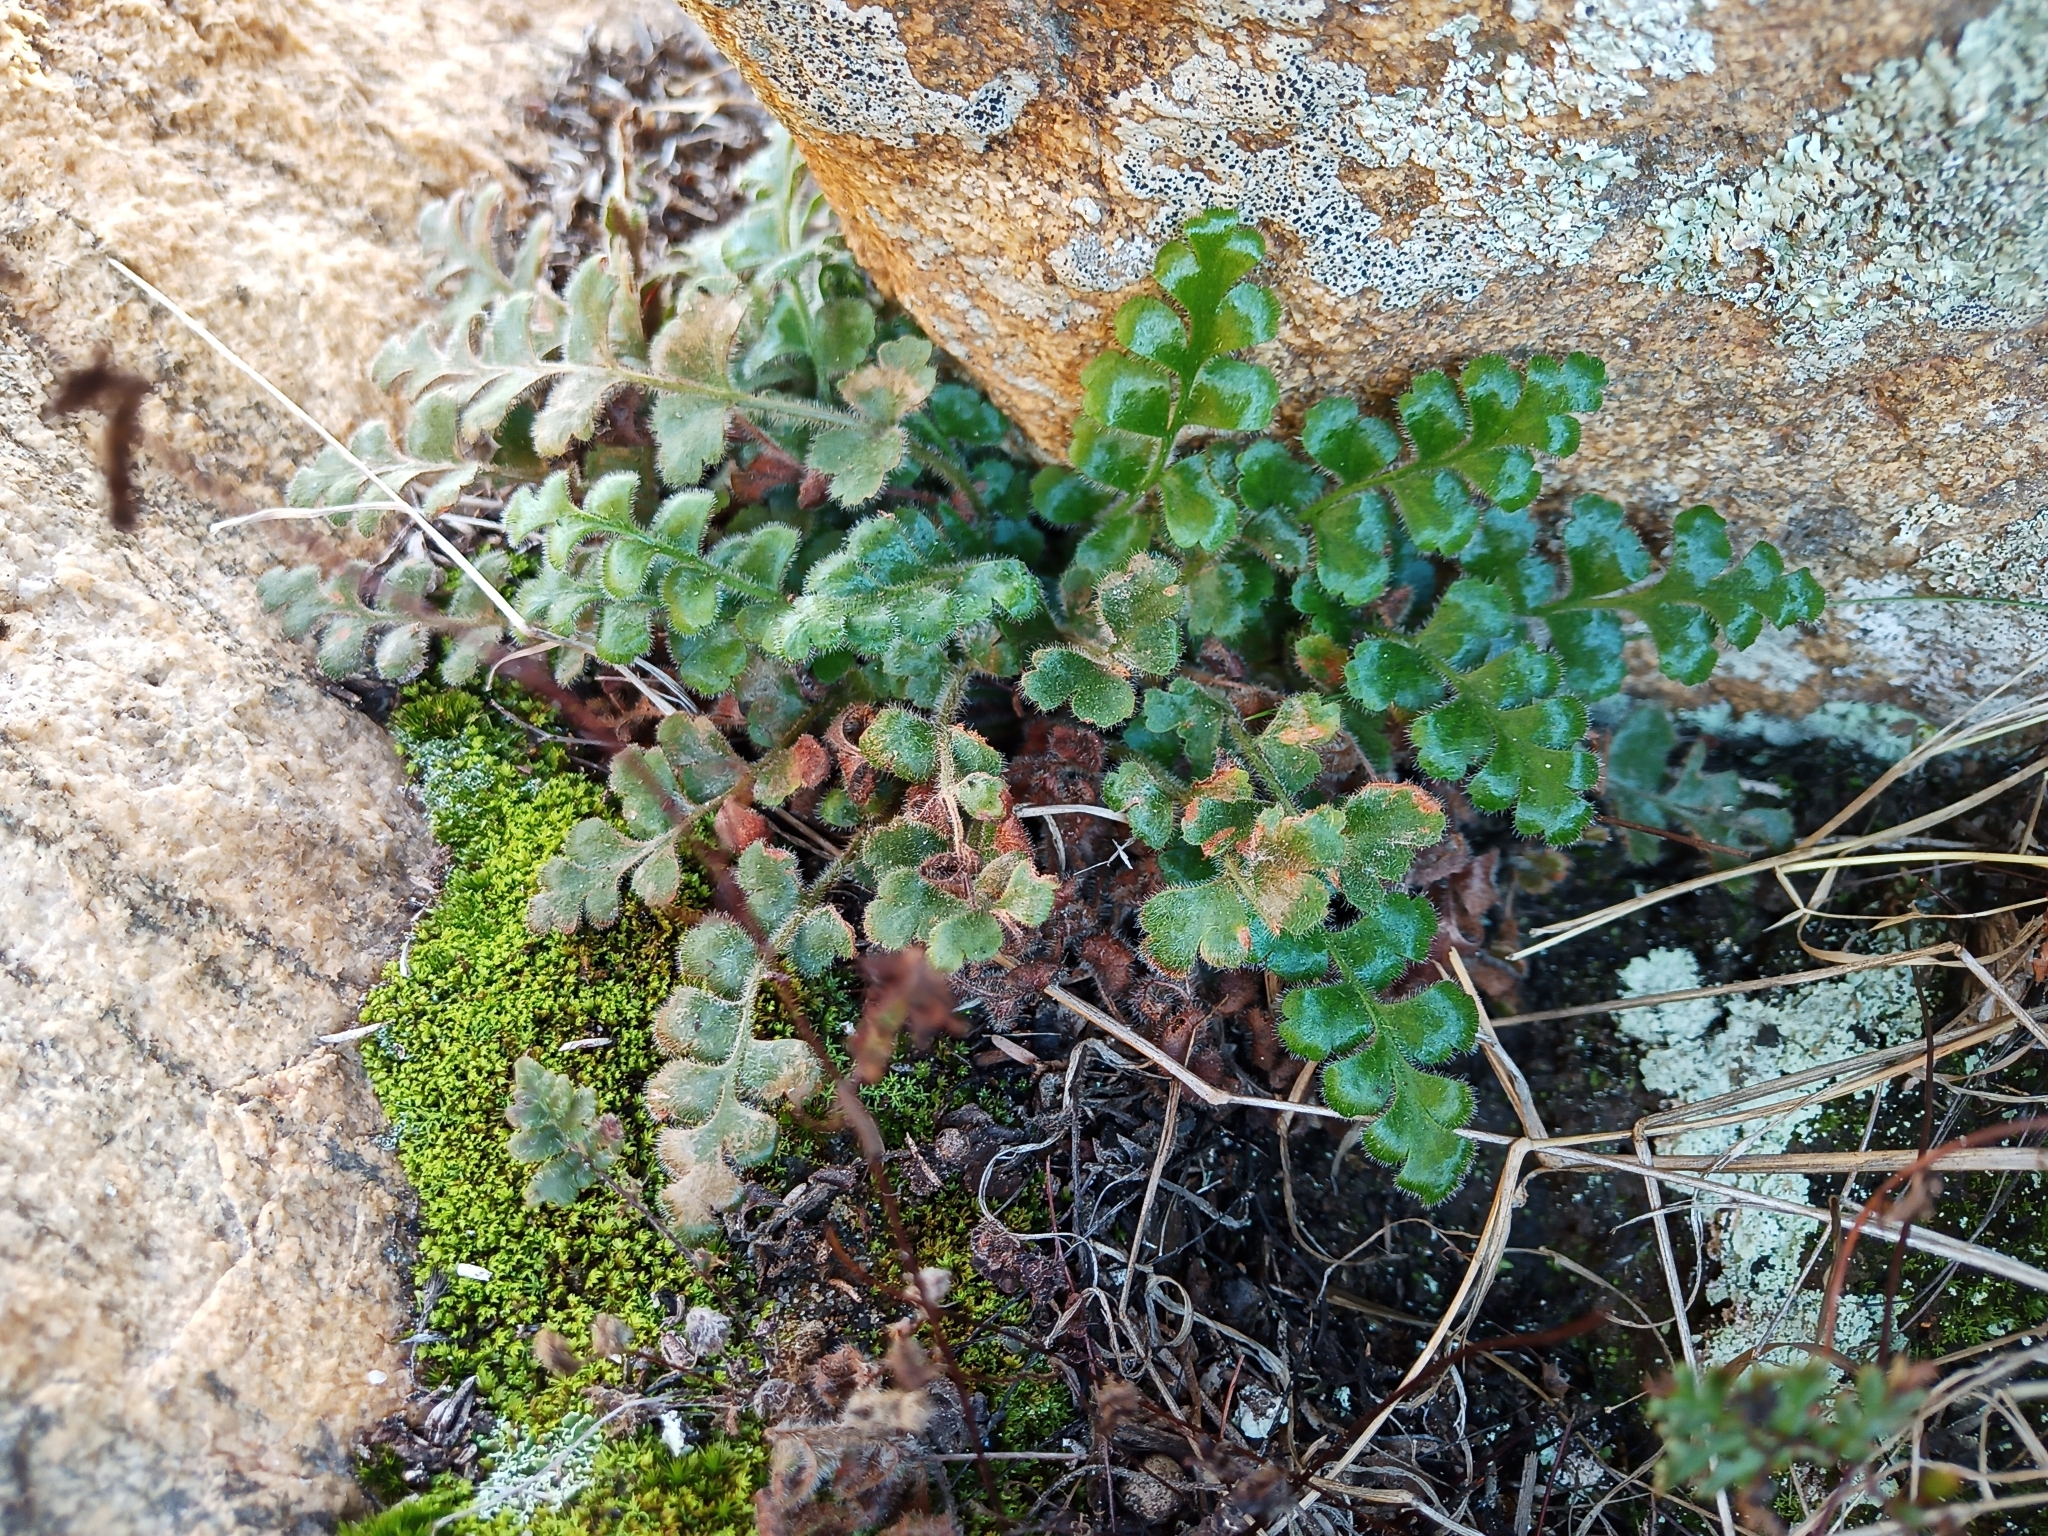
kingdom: Plantae
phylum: Tracheophyta
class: Polypodiopsida
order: Polypodiales
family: Aspleniaceae
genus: Asplenium
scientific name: Asplenium subglandulosum
